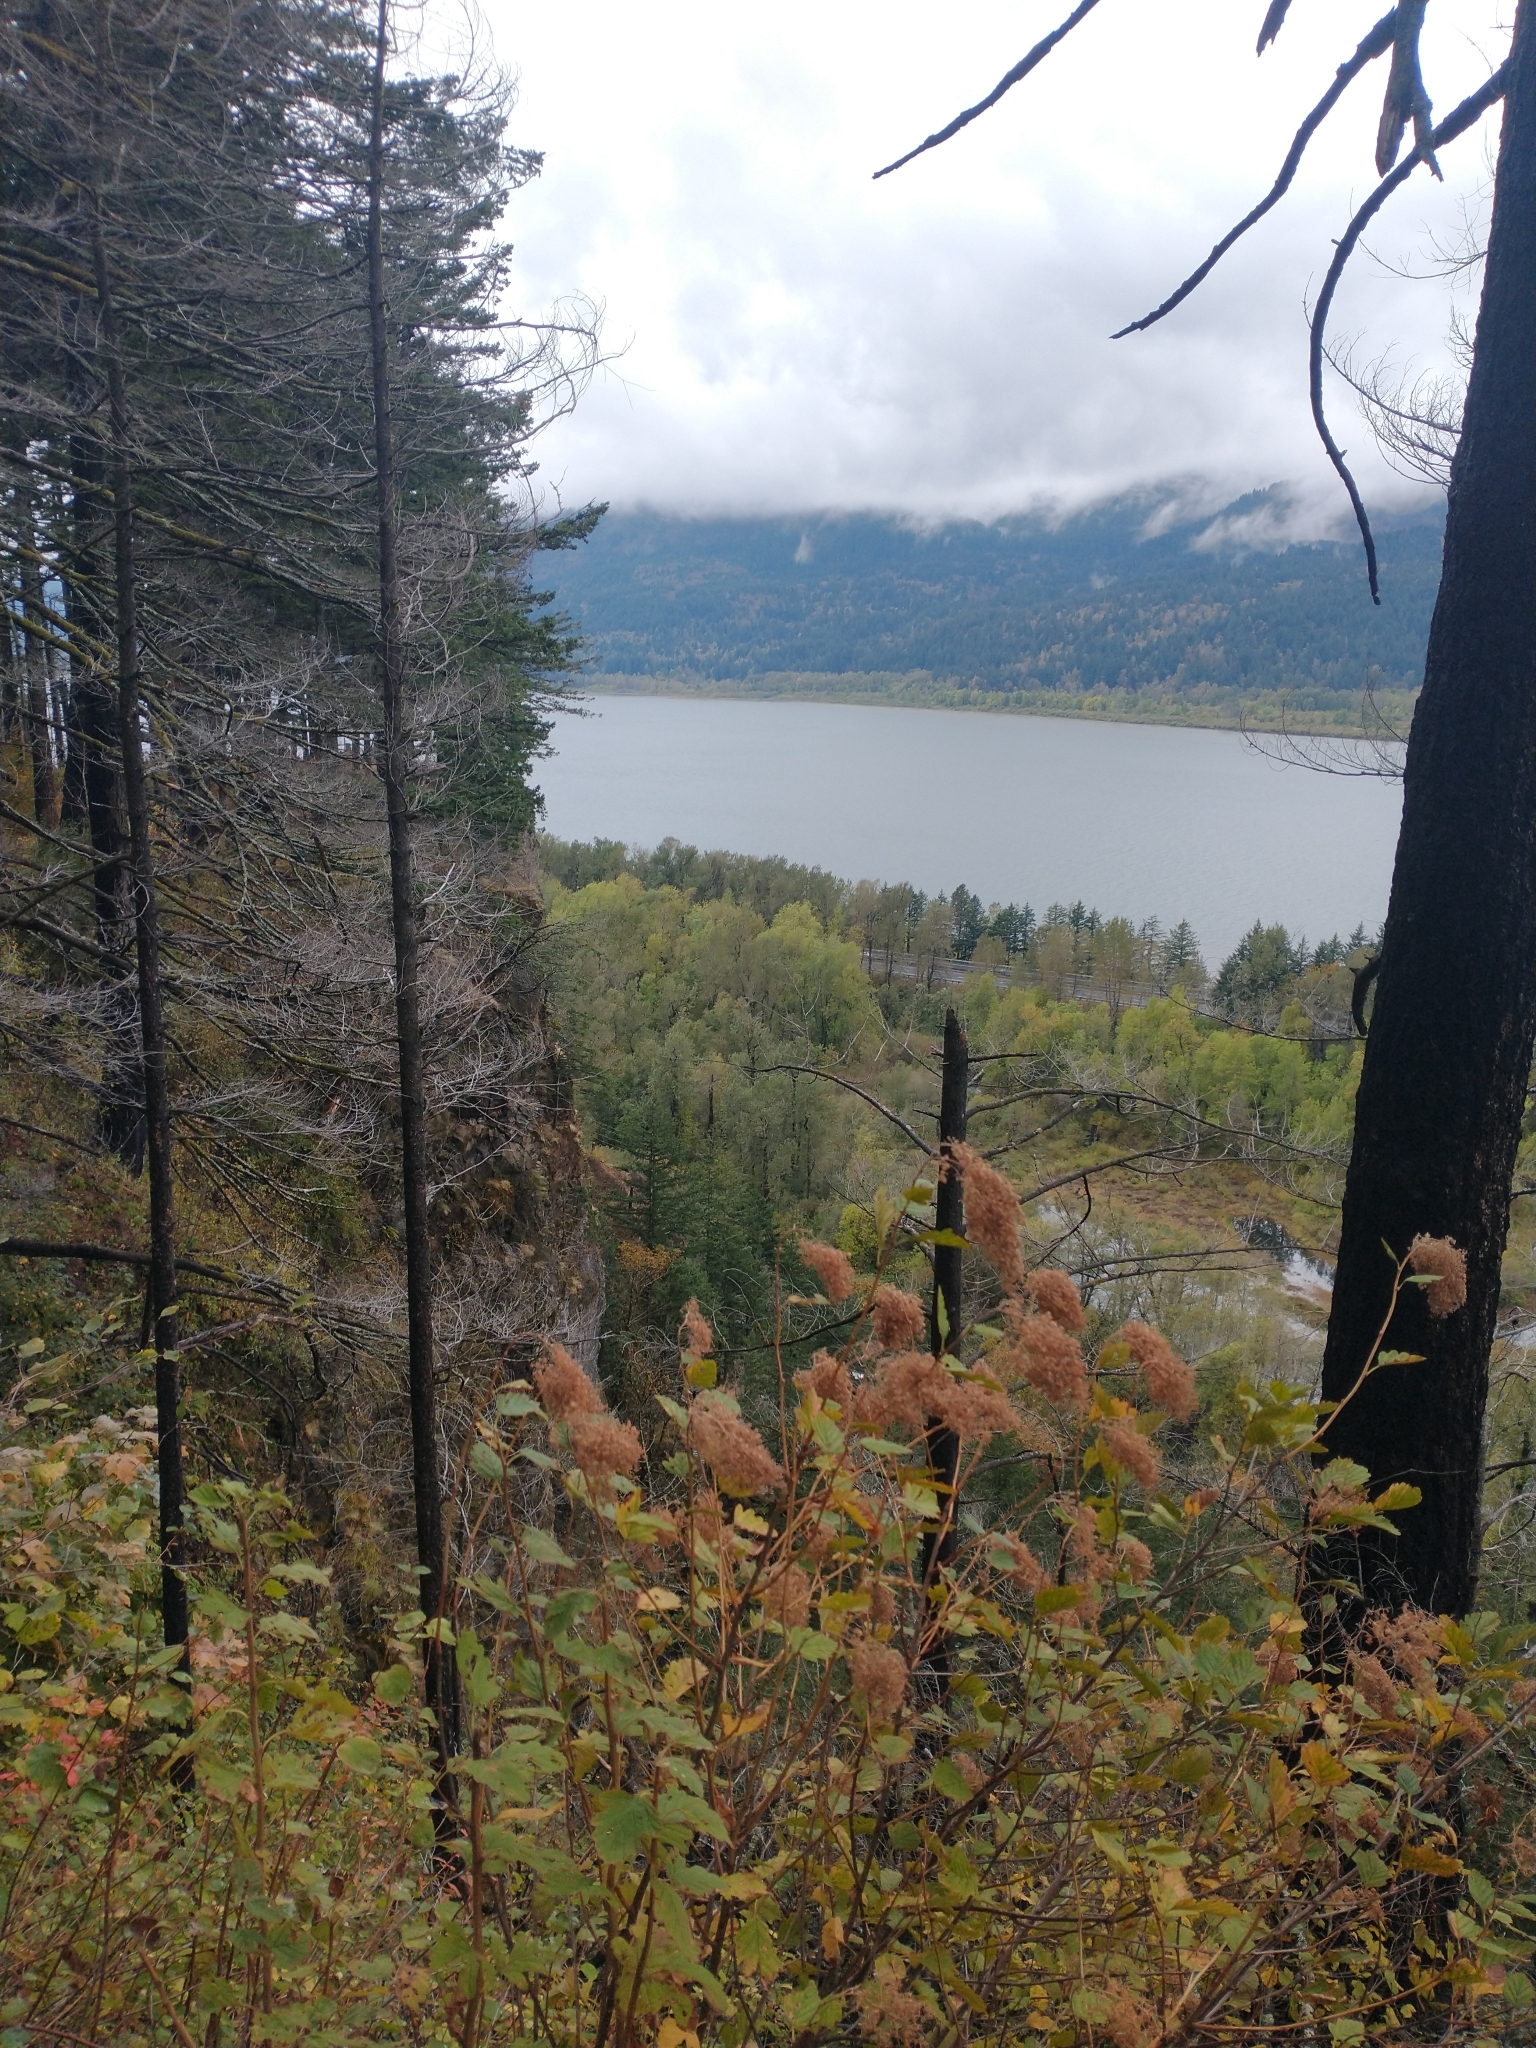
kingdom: Plantae
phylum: Tracheophyta
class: Magnoliopsida
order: Rosales
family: Rosaceae
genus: Holodiscus
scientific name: Holodiscus discolor
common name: Oceanspray
